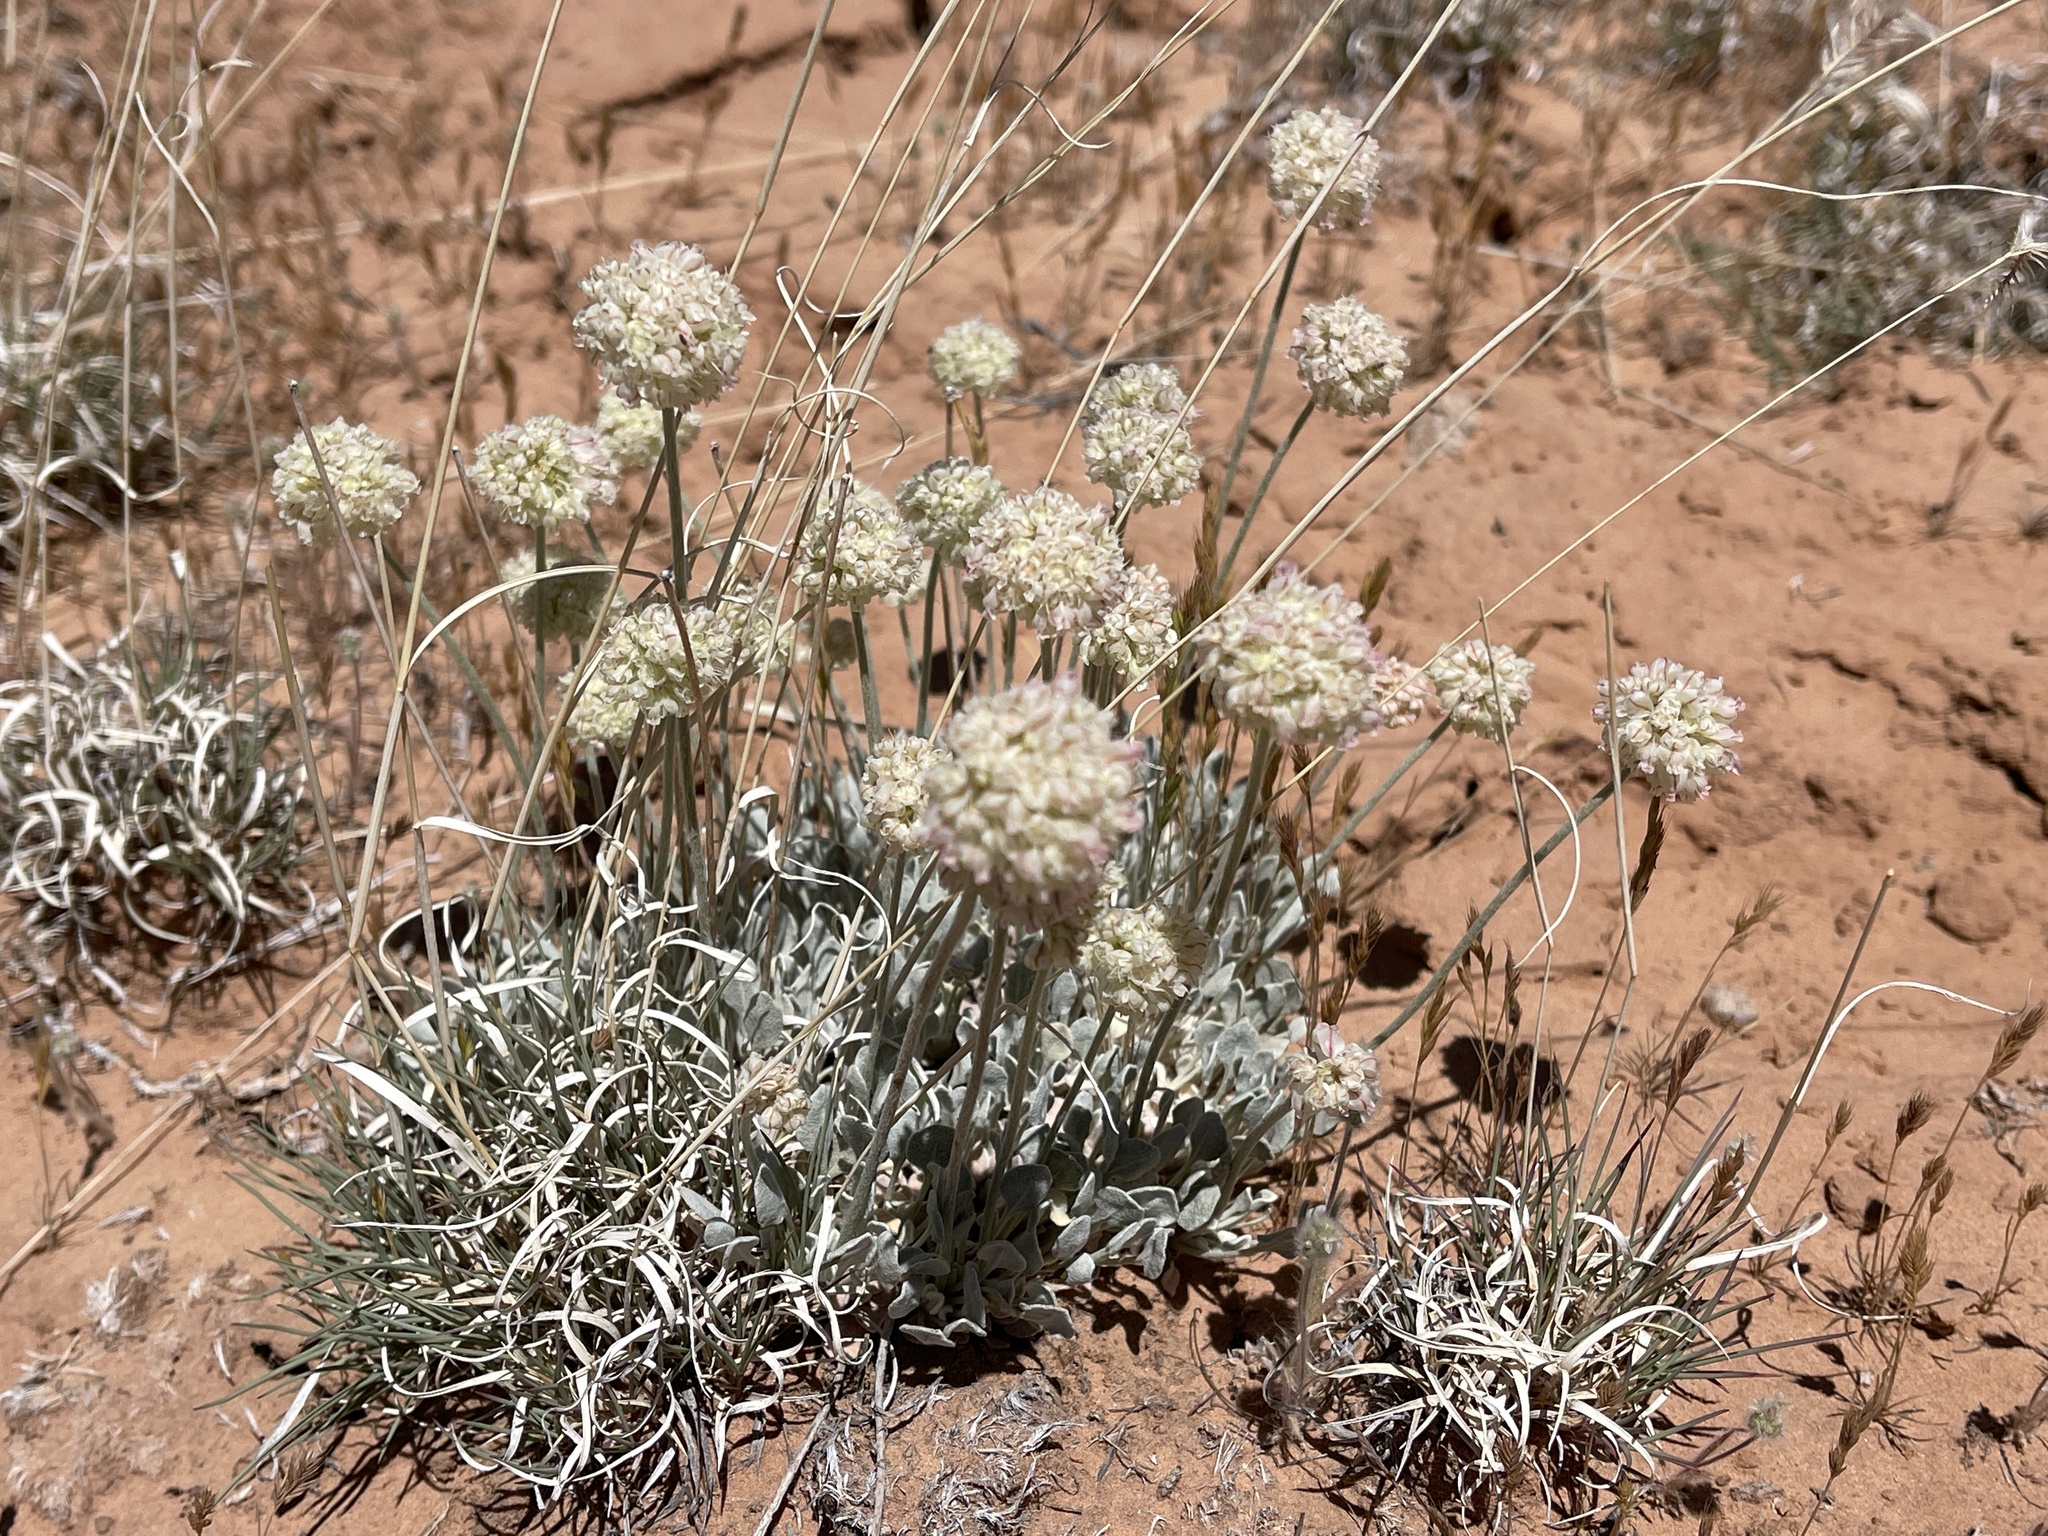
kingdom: Plantae
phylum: Tracheophyta
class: Magnoliopsida
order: Caryophyllales
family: Polygonaceae
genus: Eriogonum
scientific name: Eriogonum ovalifolium
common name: Cushion buckwheat
